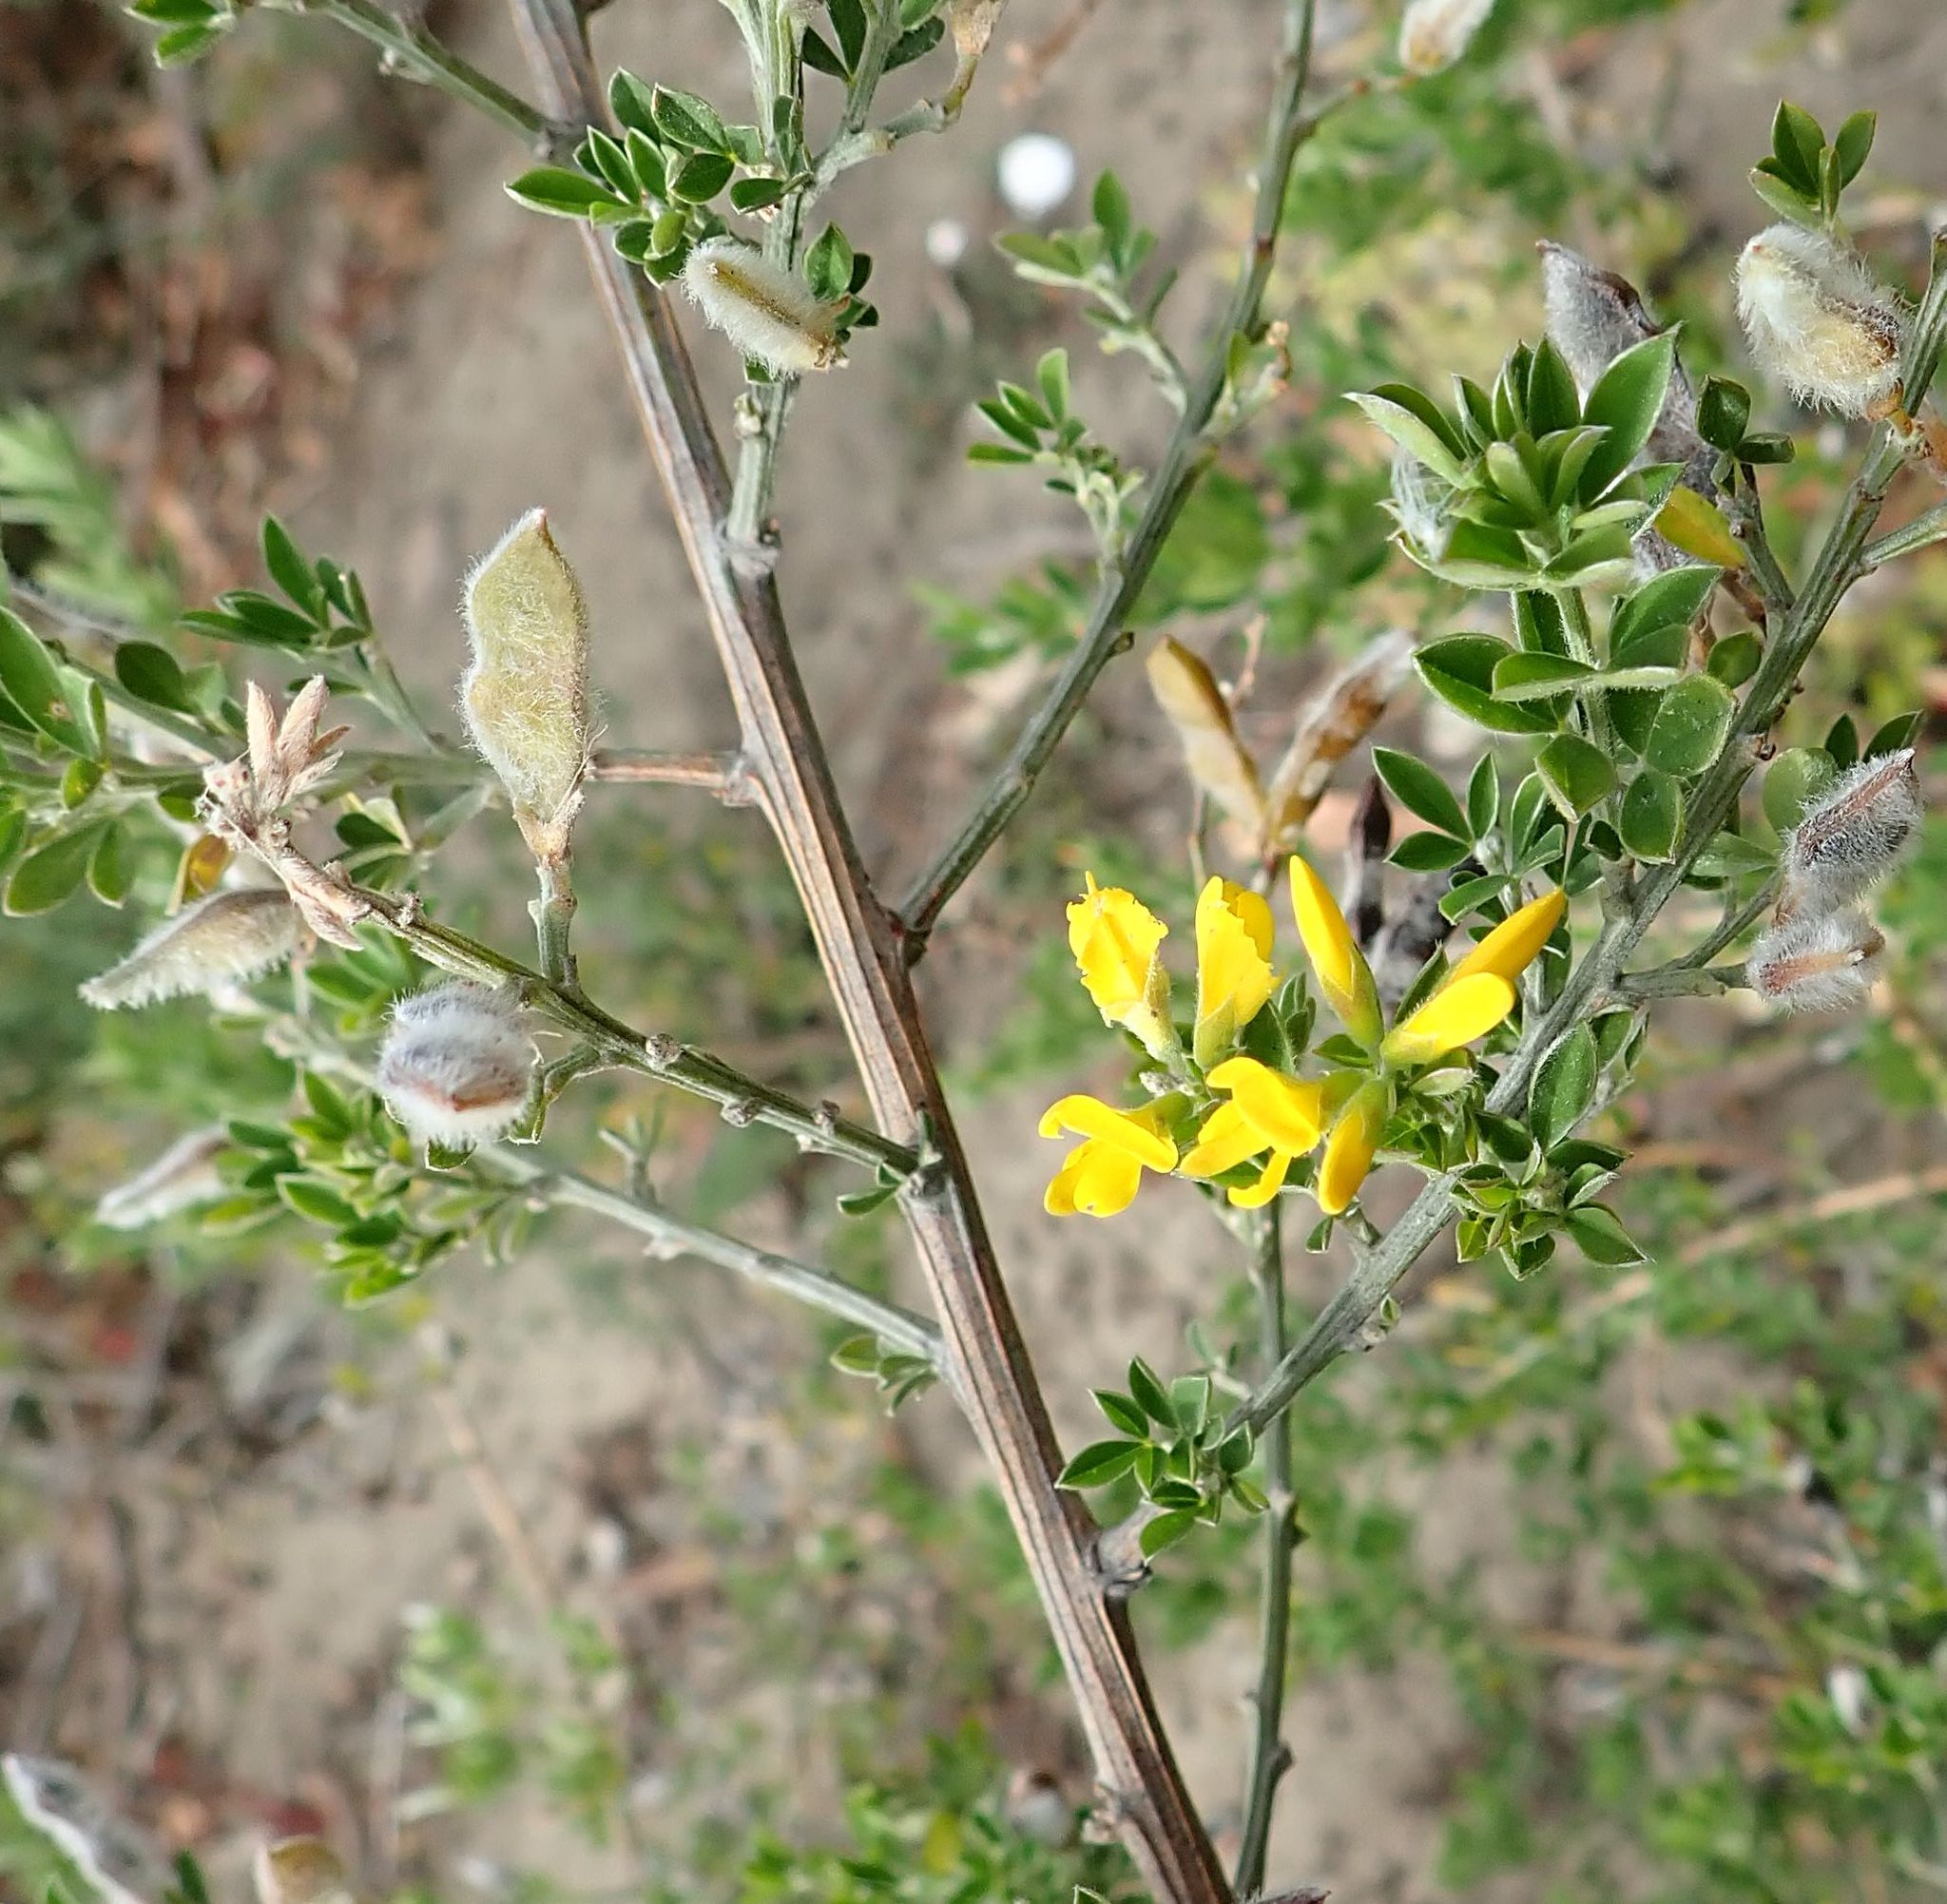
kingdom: Plantae
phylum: Tracheophyta
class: Magnoliopsida
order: Fabales
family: Fabaceae
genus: Genista
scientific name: Genista monspessulana
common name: Montpellier broom
